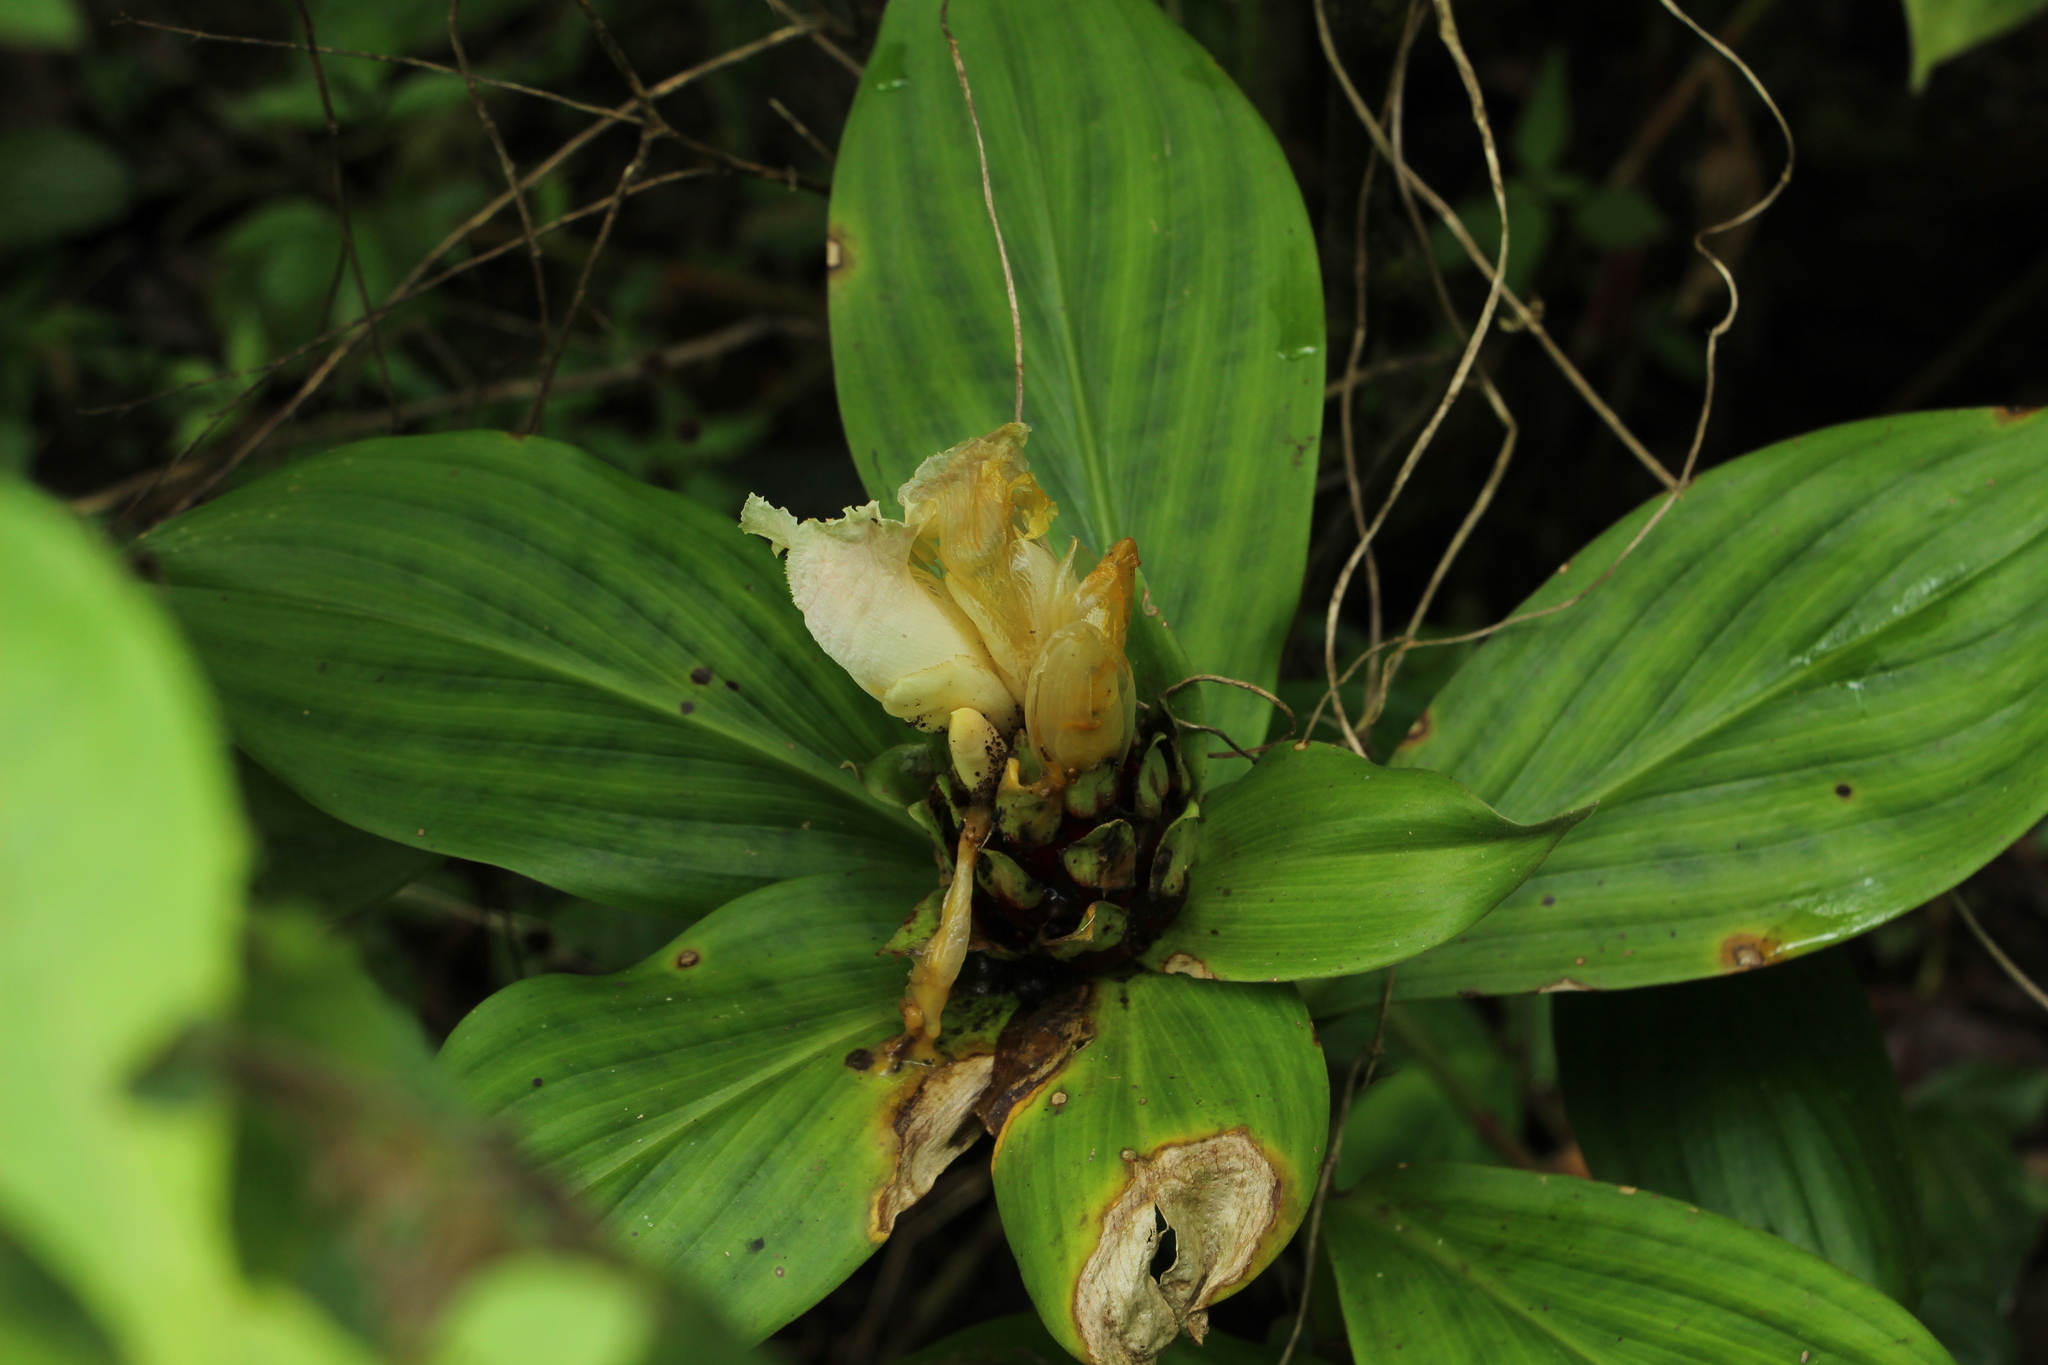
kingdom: Plantae
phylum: Tracheophyta
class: Liliopsida
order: Zingiberales
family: Costaceae
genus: Costus
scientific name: Costus erythrophyllus
